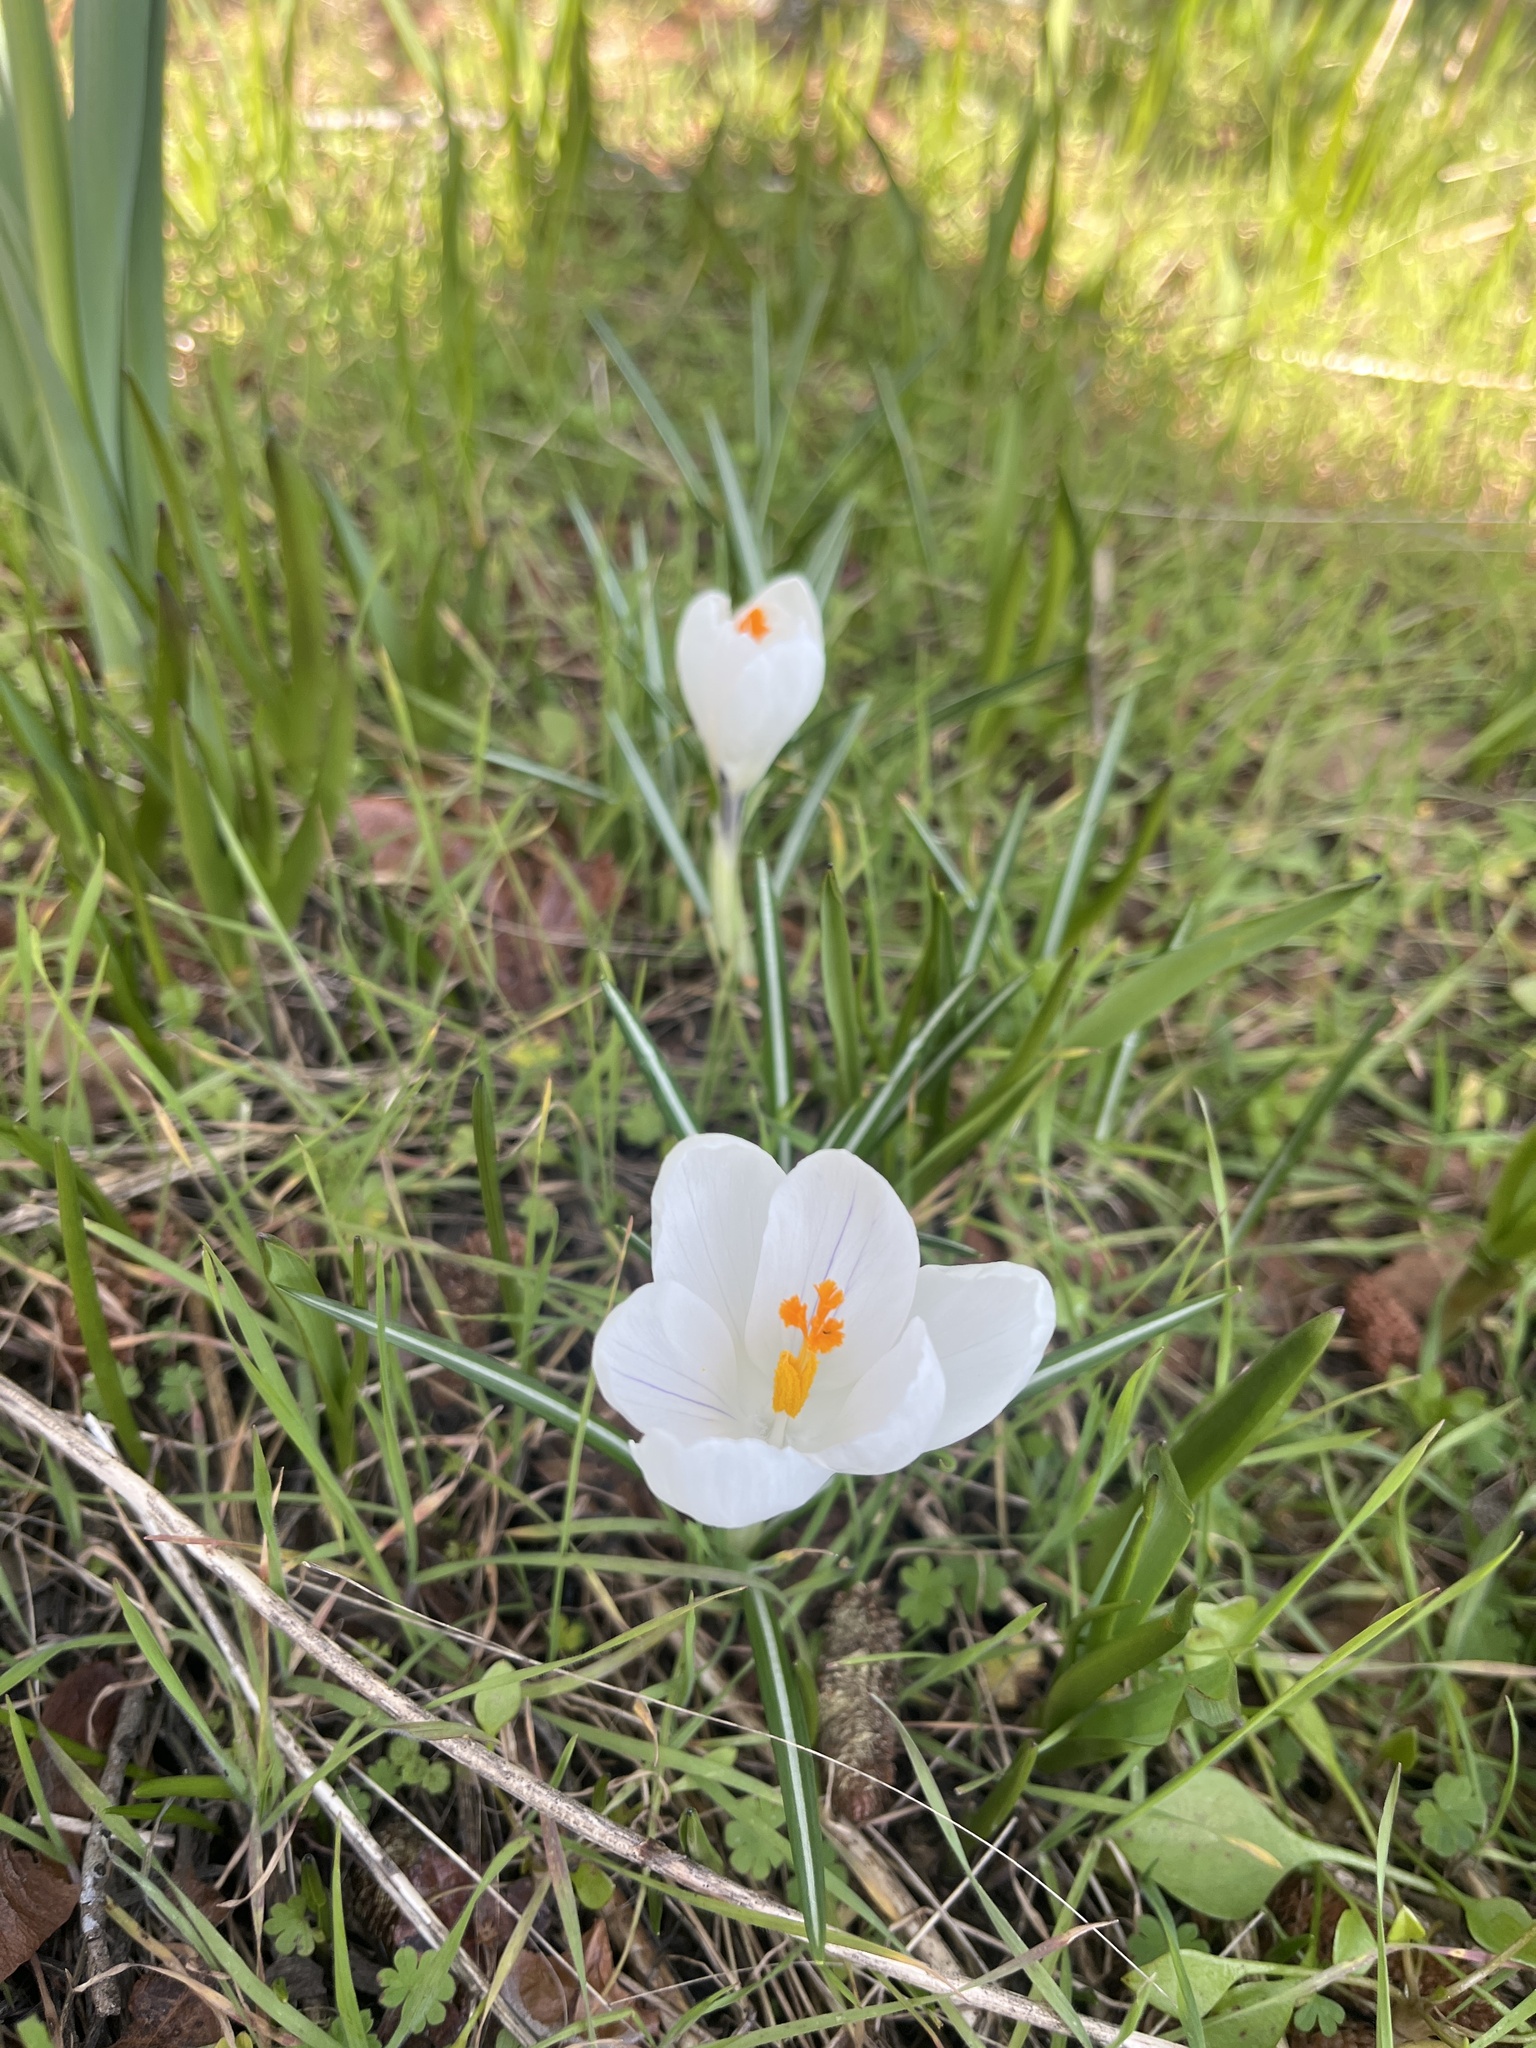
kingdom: Plantae
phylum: Tracheophyta
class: Liliopsida
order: Asparagales
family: Iridaceae
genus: Crocus
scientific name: Crocus vernus
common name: Spring crocus
